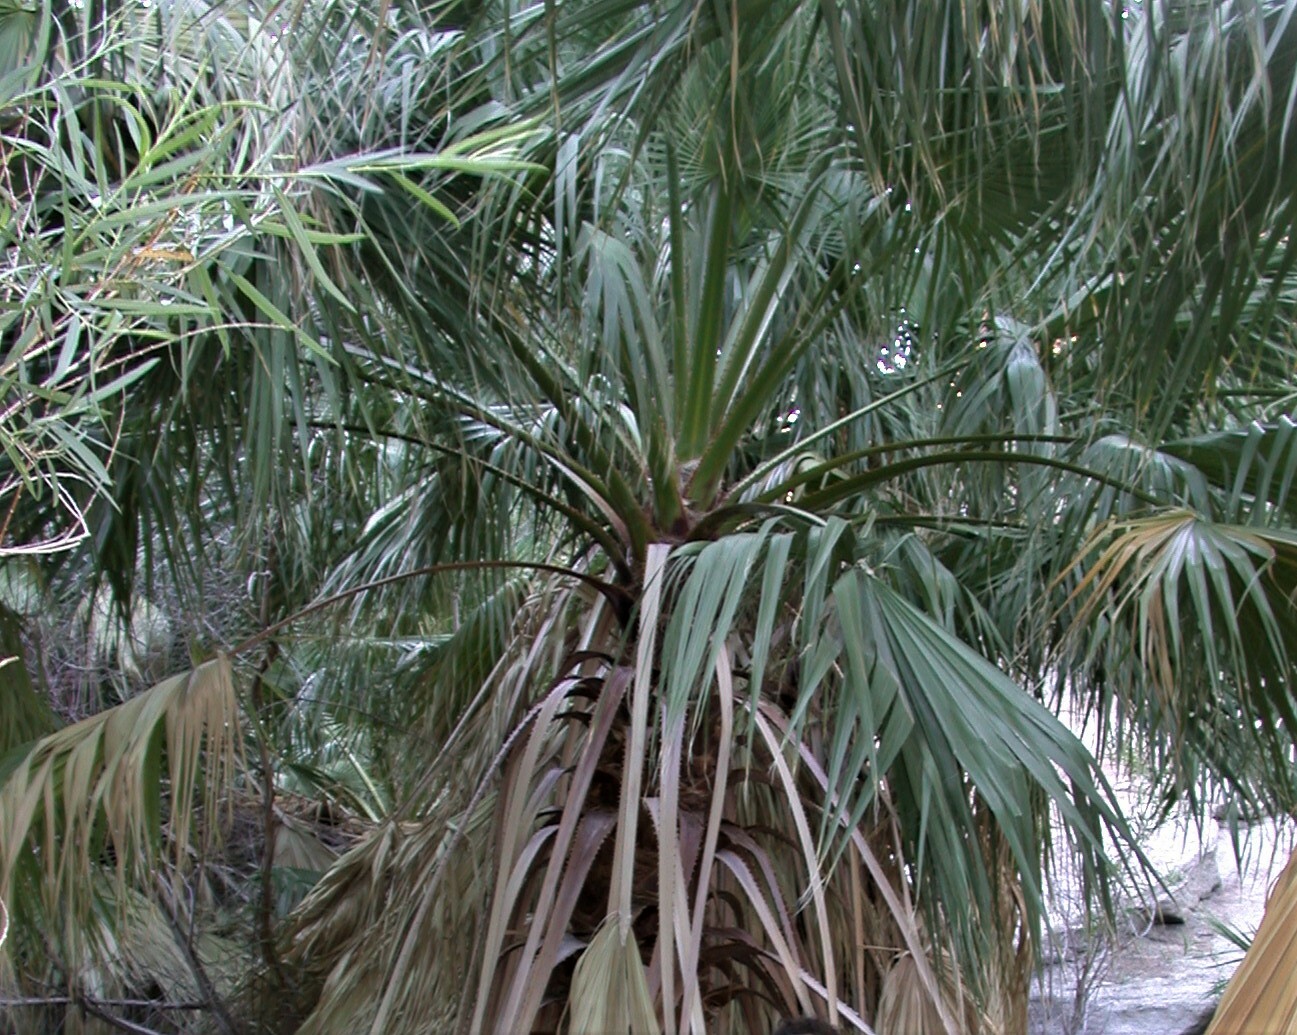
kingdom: Plantae
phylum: Tracheophyta
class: Liliopsida
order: Arecales
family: Arecaceae
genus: Washingtonia
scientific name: Washingtonia filifera
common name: California fan palm
